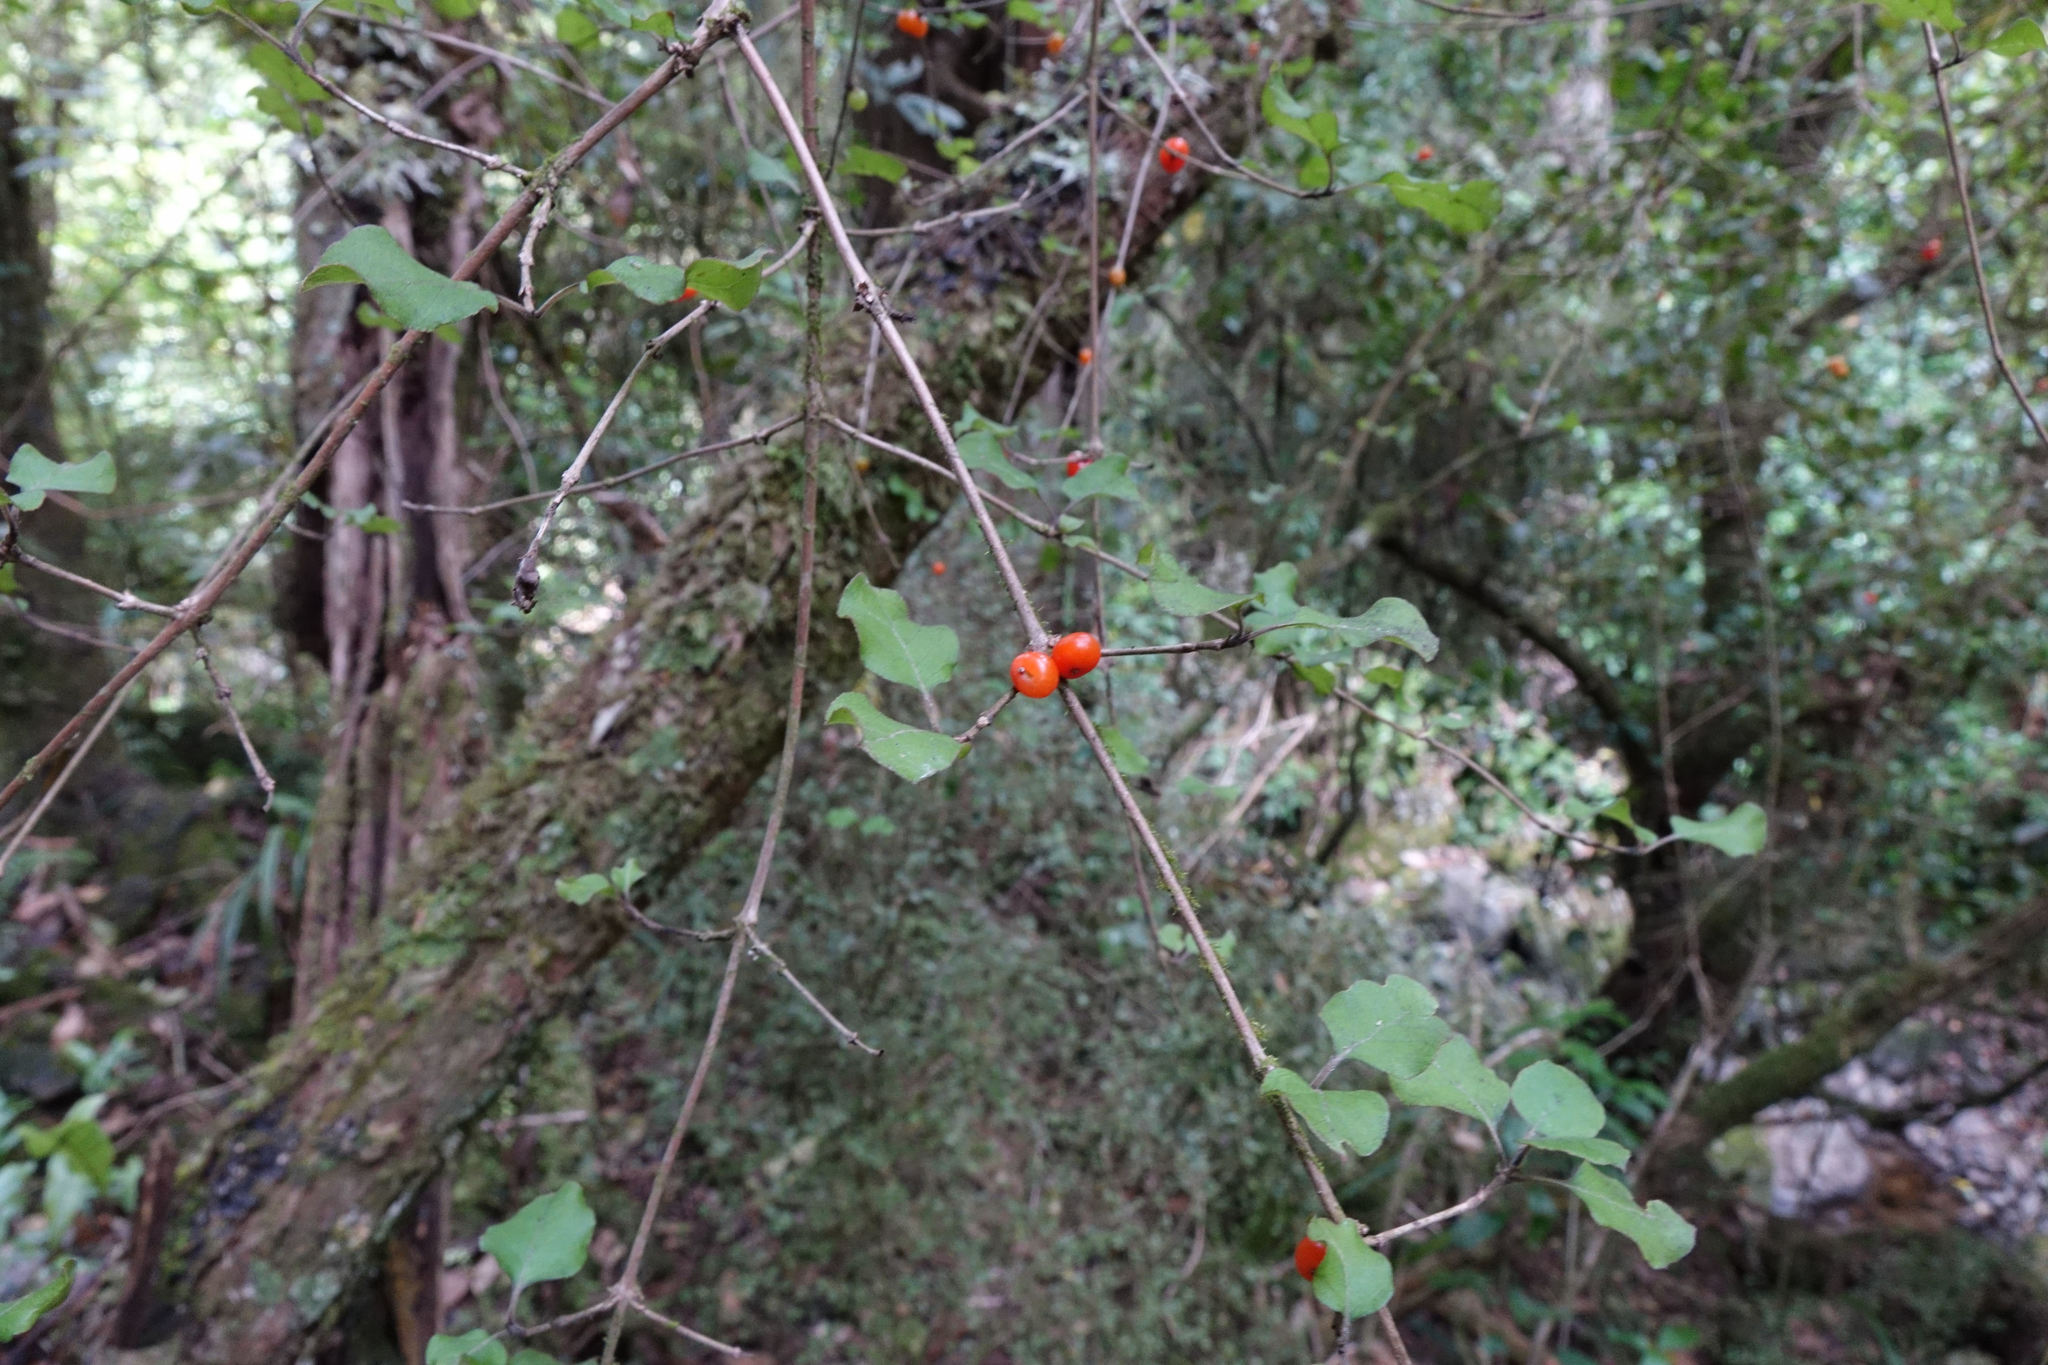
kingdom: Plantae
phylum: Tracheophyta
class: Magnoliopsida
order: Gentianales
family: Rubiaceae
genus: Coprosma
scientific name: Coprosma rotundifolia
